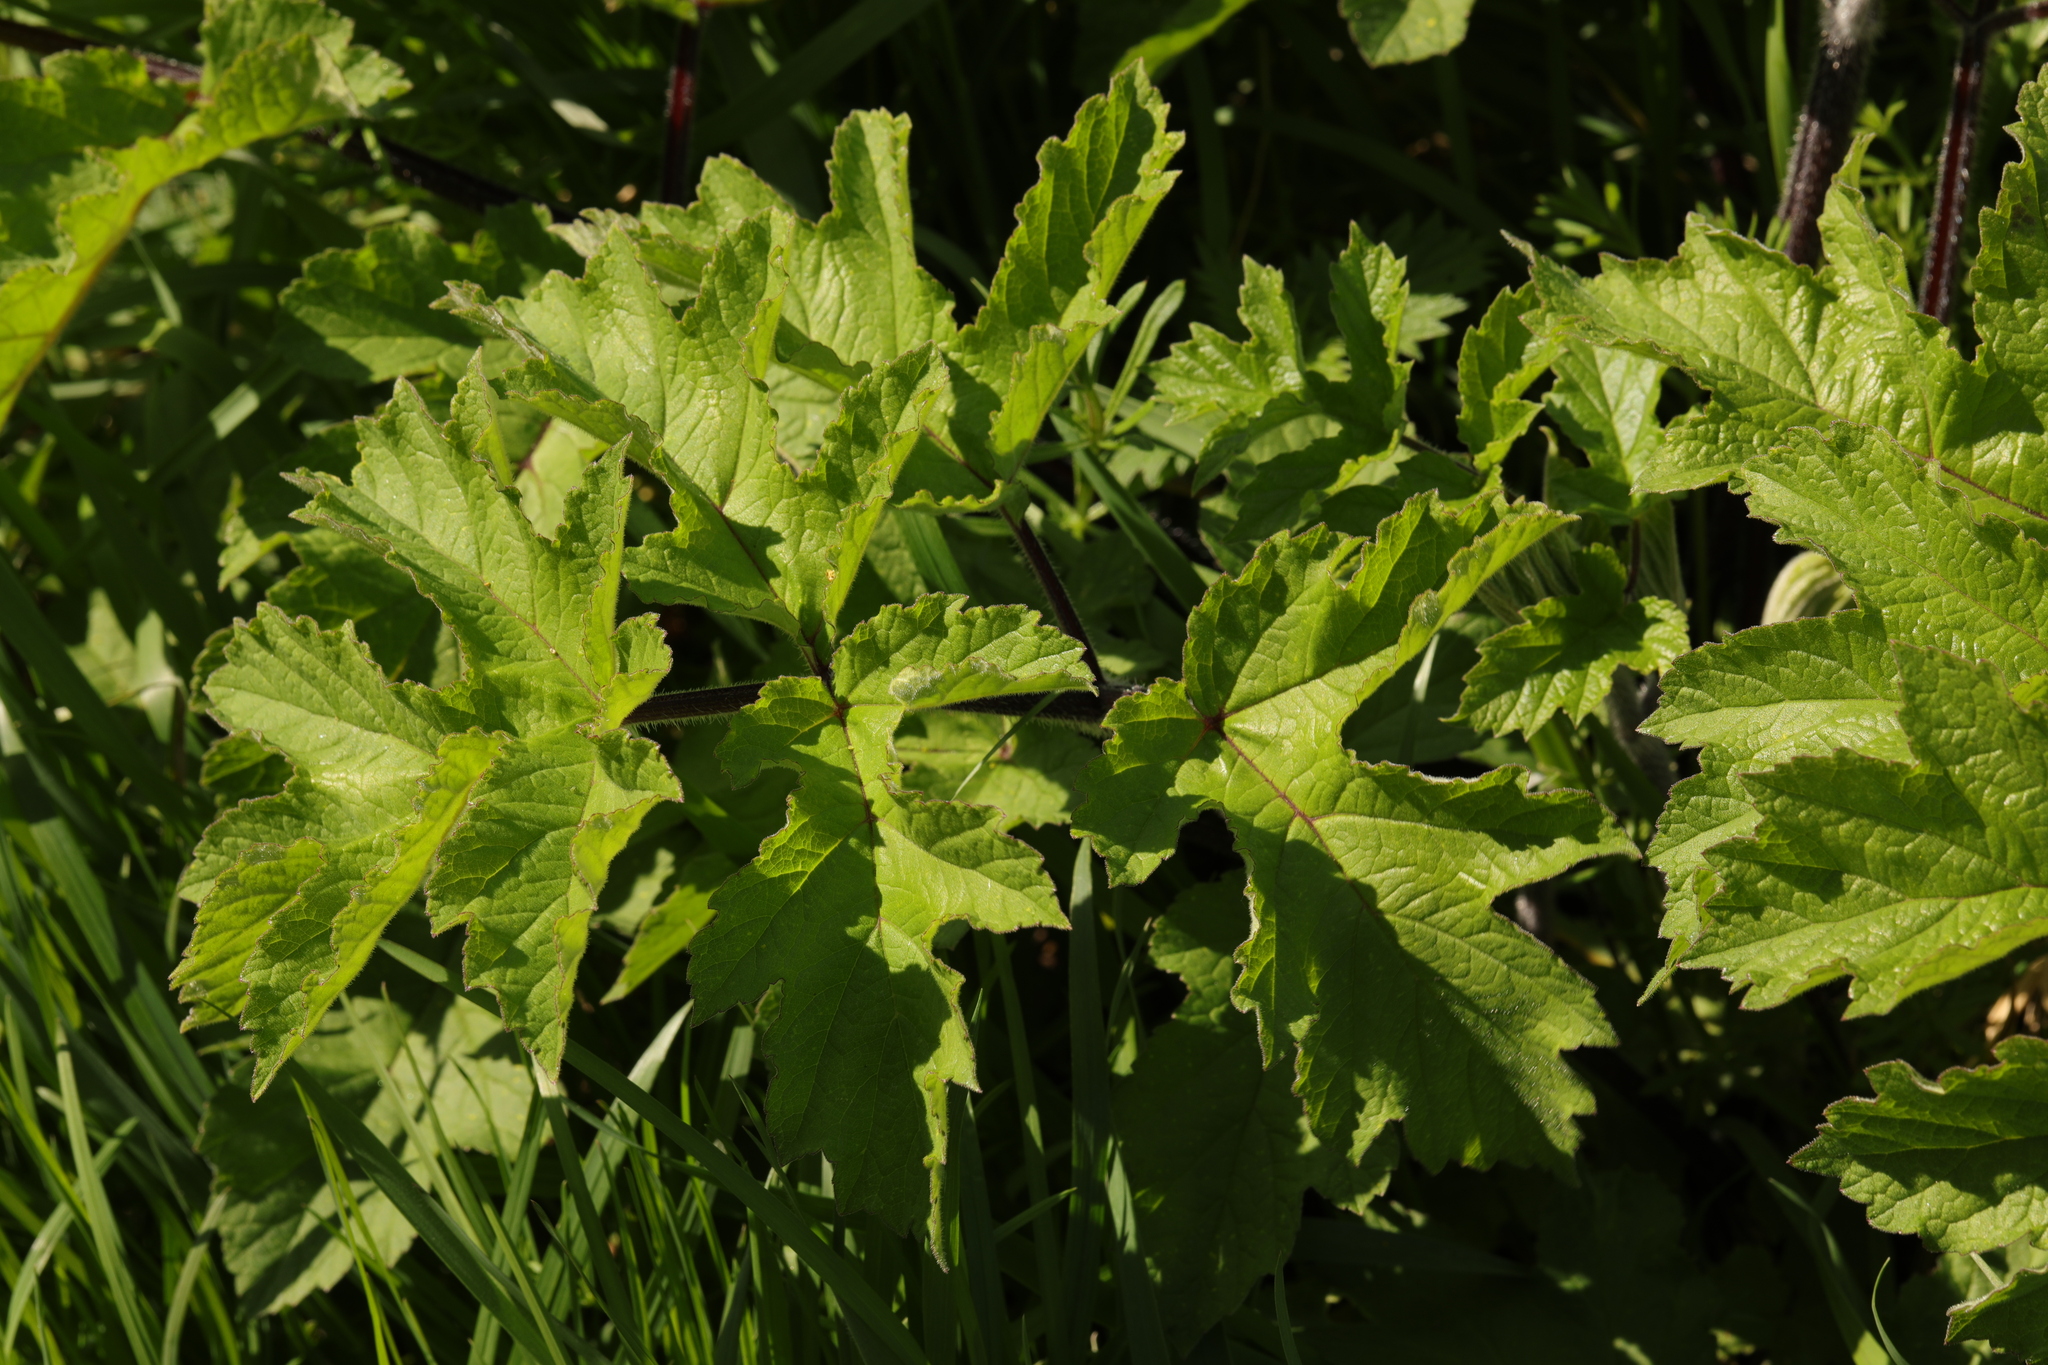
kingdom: Plantae
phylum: Tracheophyta
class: Magnoliopsida
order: Apiales
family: Apiaceae
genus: Heracleum
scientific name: Heracleum sphondylium
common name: Hogweed
